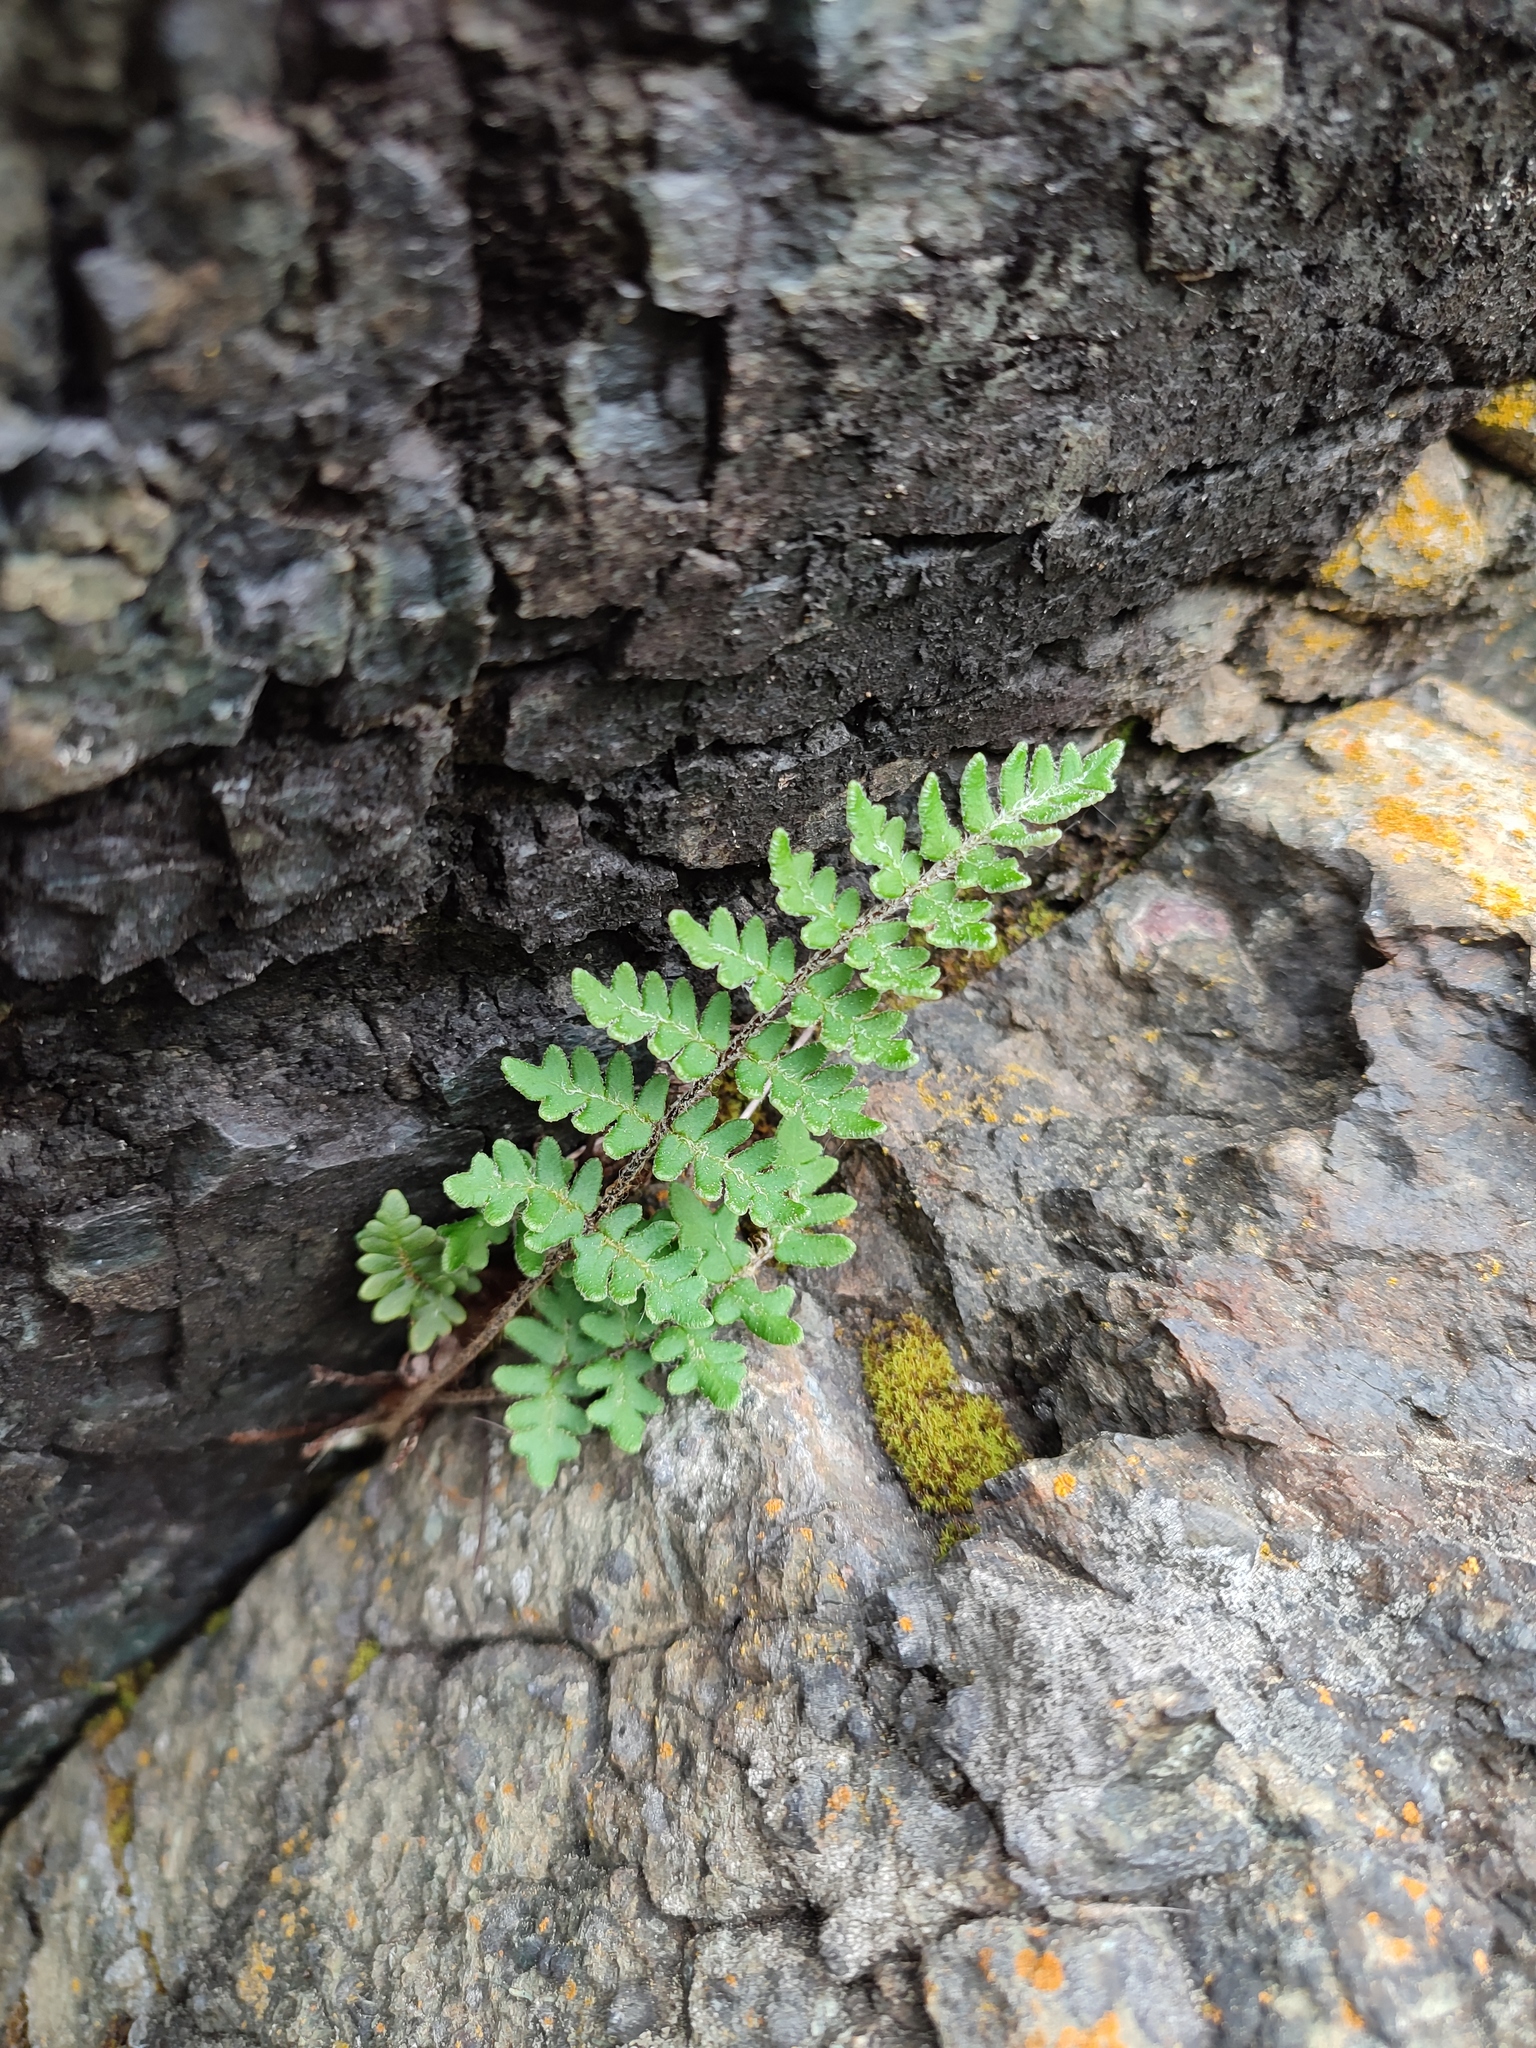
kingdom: Plantae
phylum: Tracheophyta
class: Polypodiopsida
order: Polypodiales
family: Pteridaceae
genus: Paragymnopteris
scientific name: Paragymnopteris marantae
